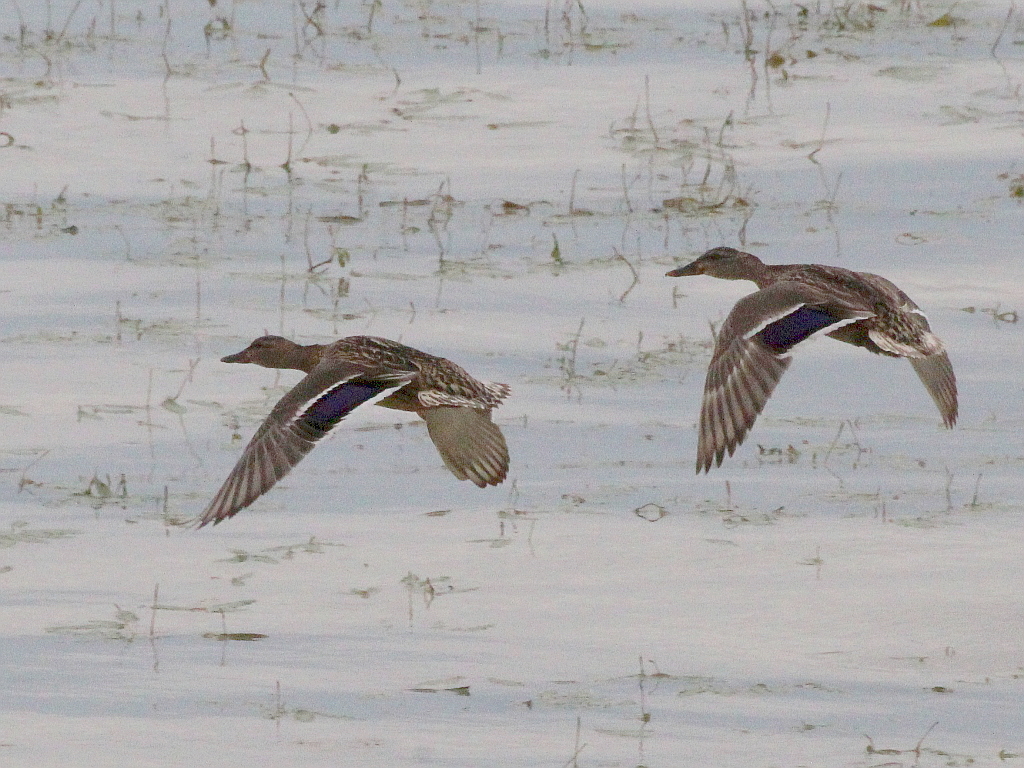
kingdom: Animalia
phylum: Chordata
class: Aves
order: Anseriformes
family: Anatidae
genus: Anas
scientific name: Anas platyrhynchos
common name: Mallard
